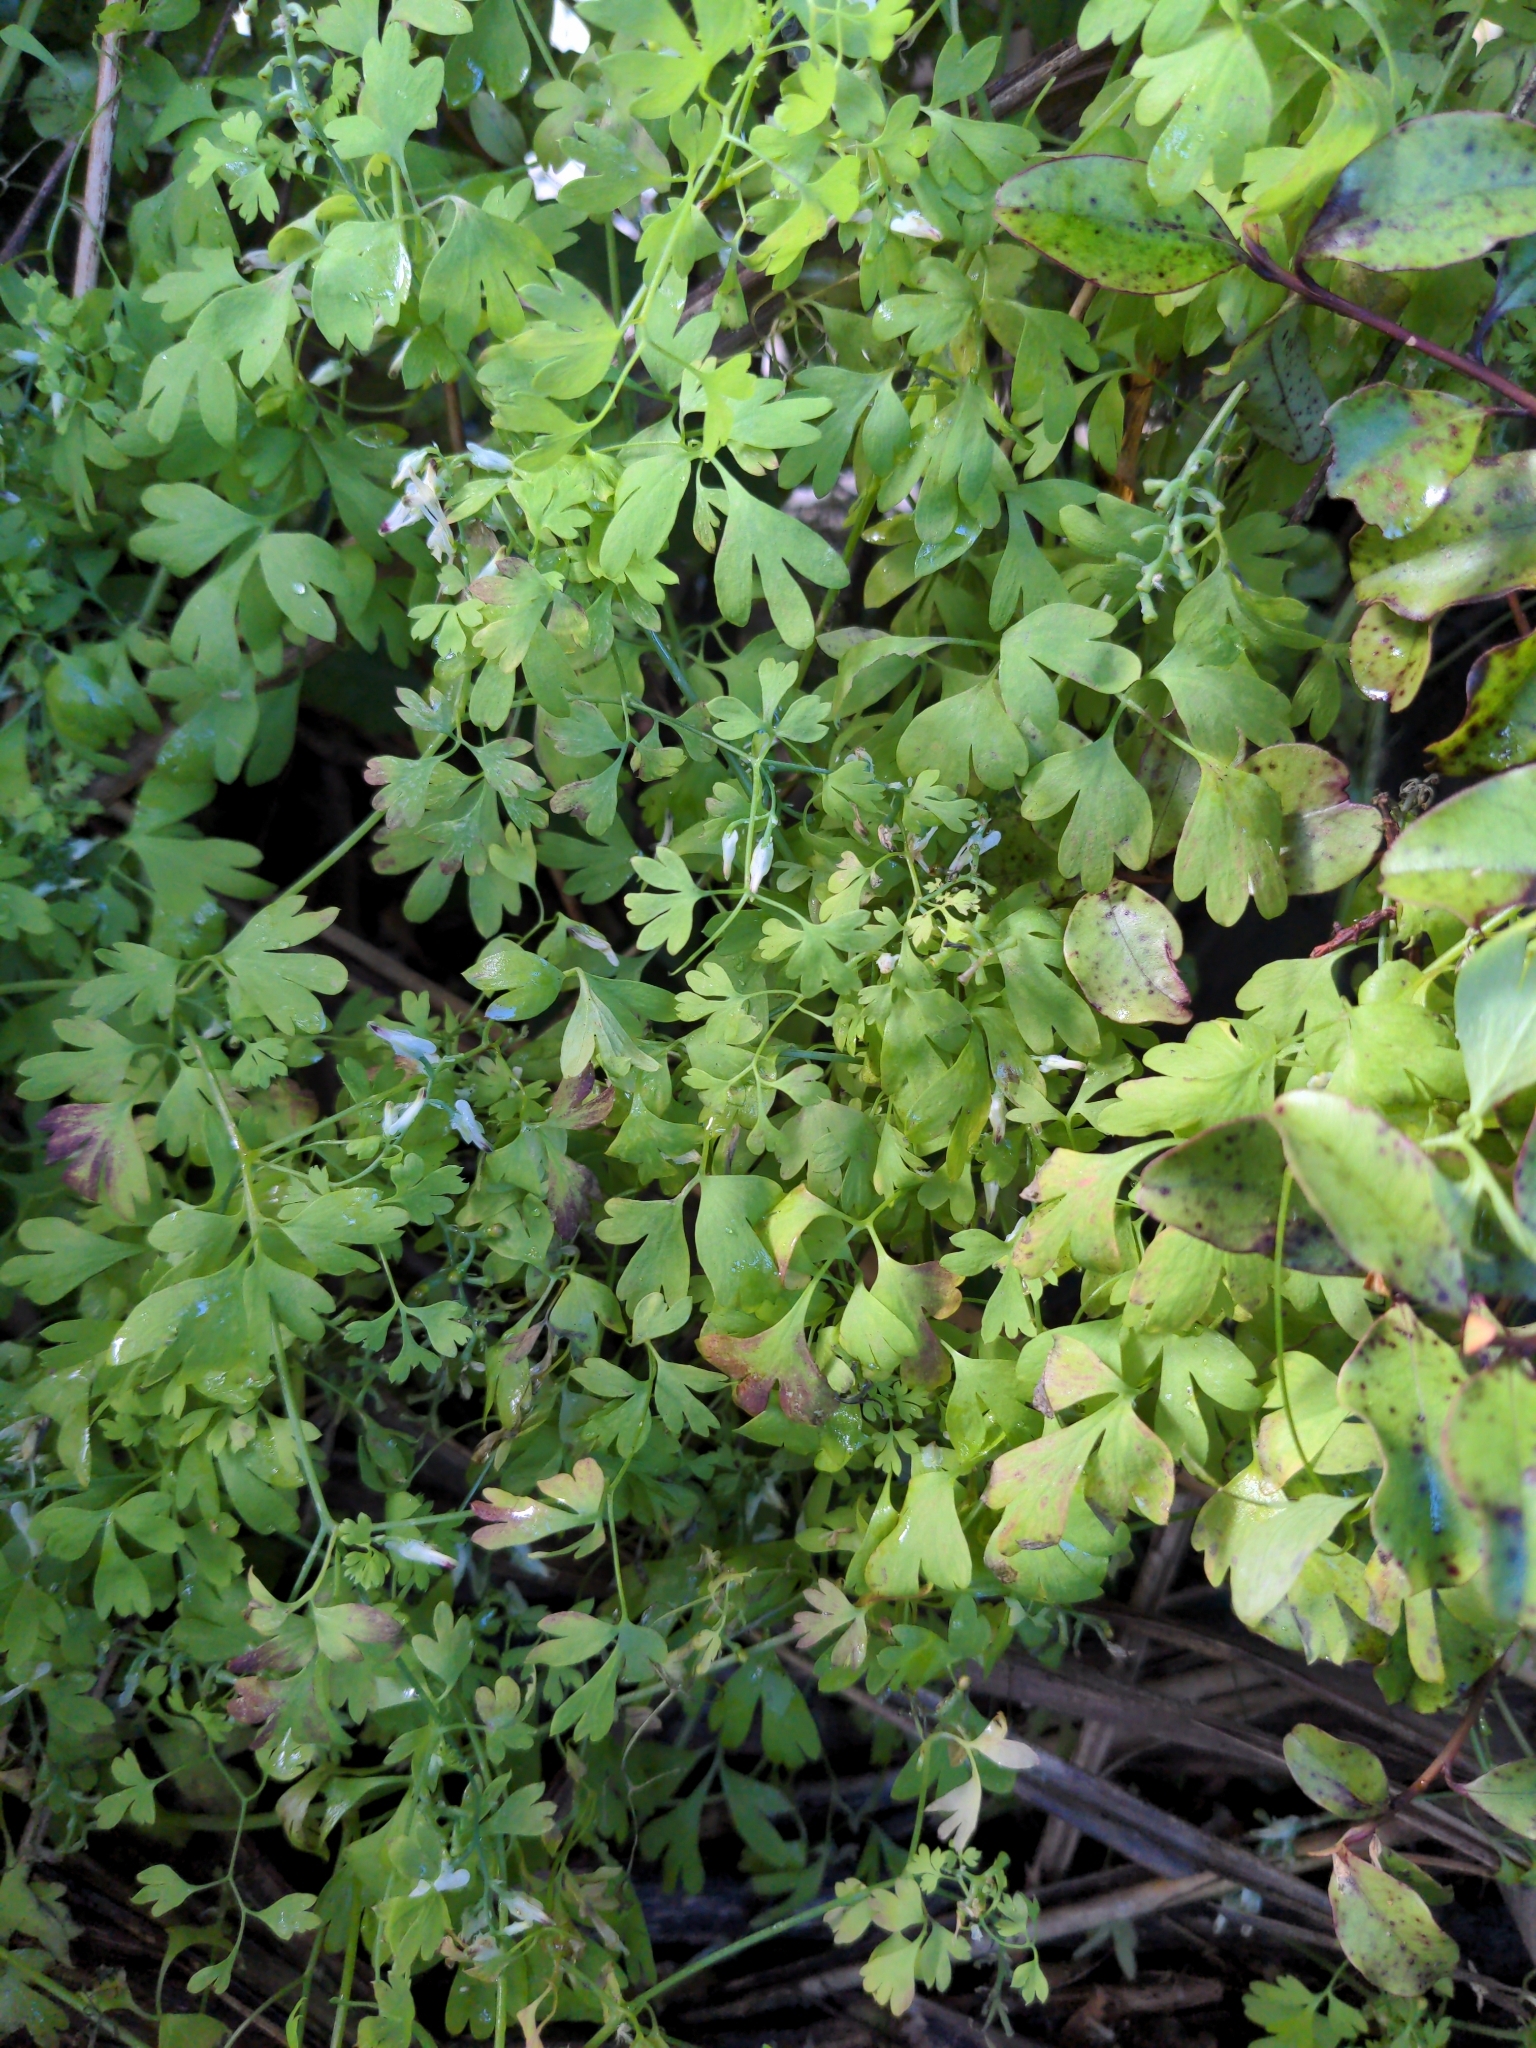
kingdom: Plantae
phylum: Tracheophyta
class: Magnoliopsida
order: Ranunculales
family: Papaveraceae
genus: Fumaria
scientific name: Fumaria capreolata
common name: White ramping-fumitory
